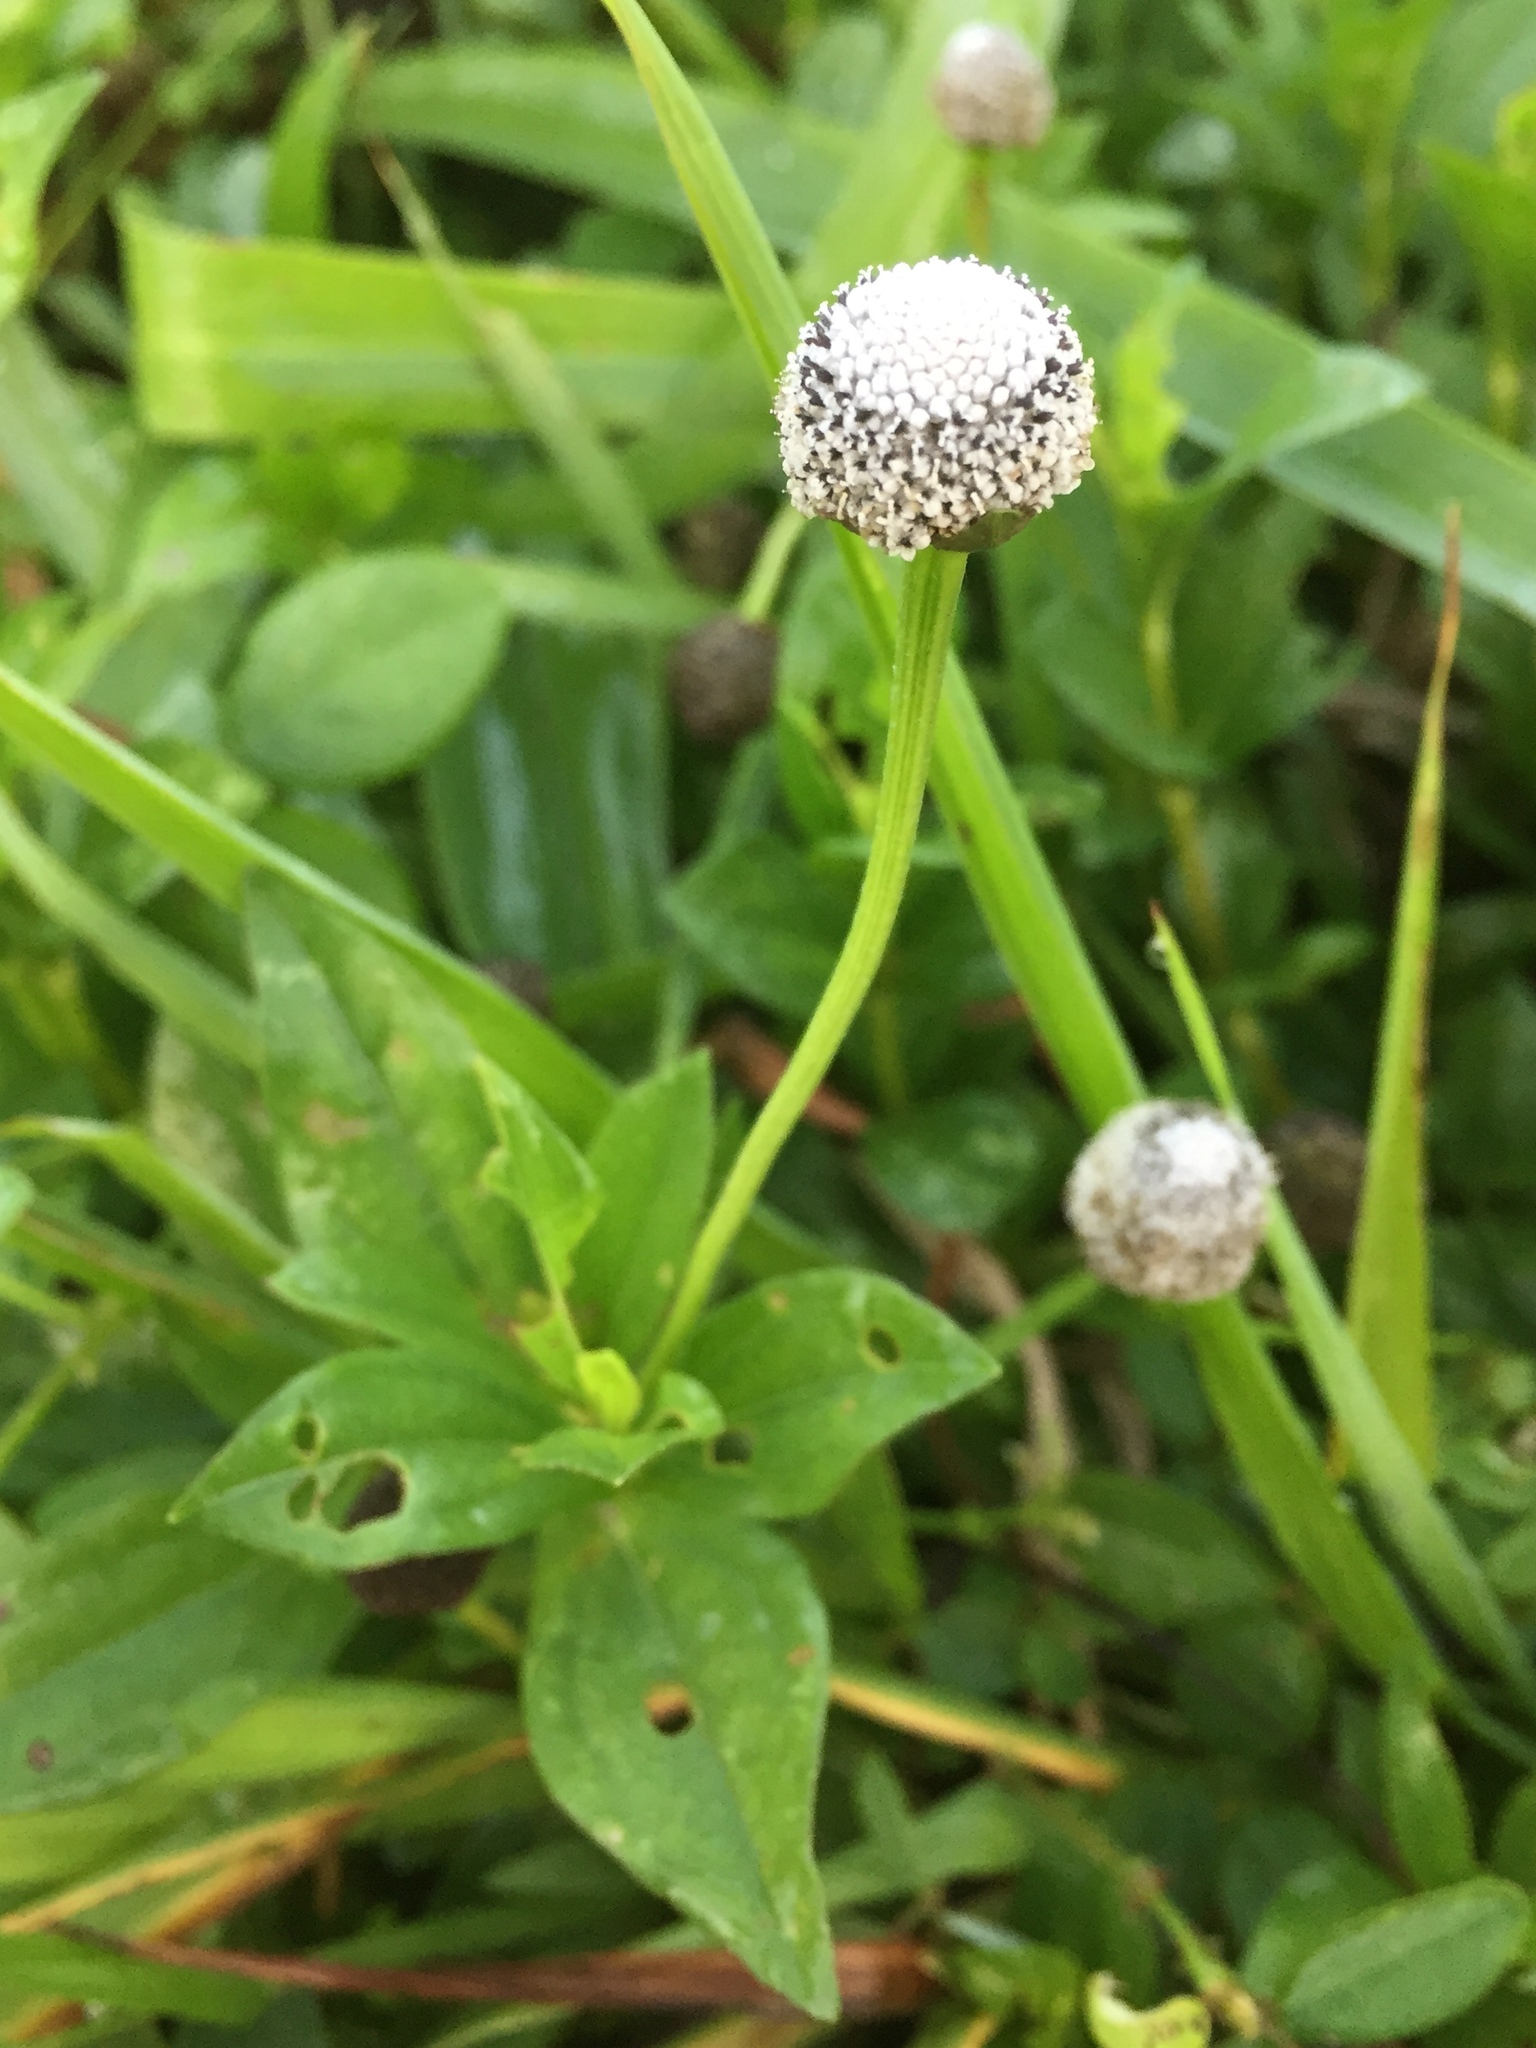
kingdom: Plantae
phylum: Tracheophyta
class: Magnoliopsida
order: Asterales
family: Asteraceae
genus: Spilanthes
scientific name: Spilanthes urens
